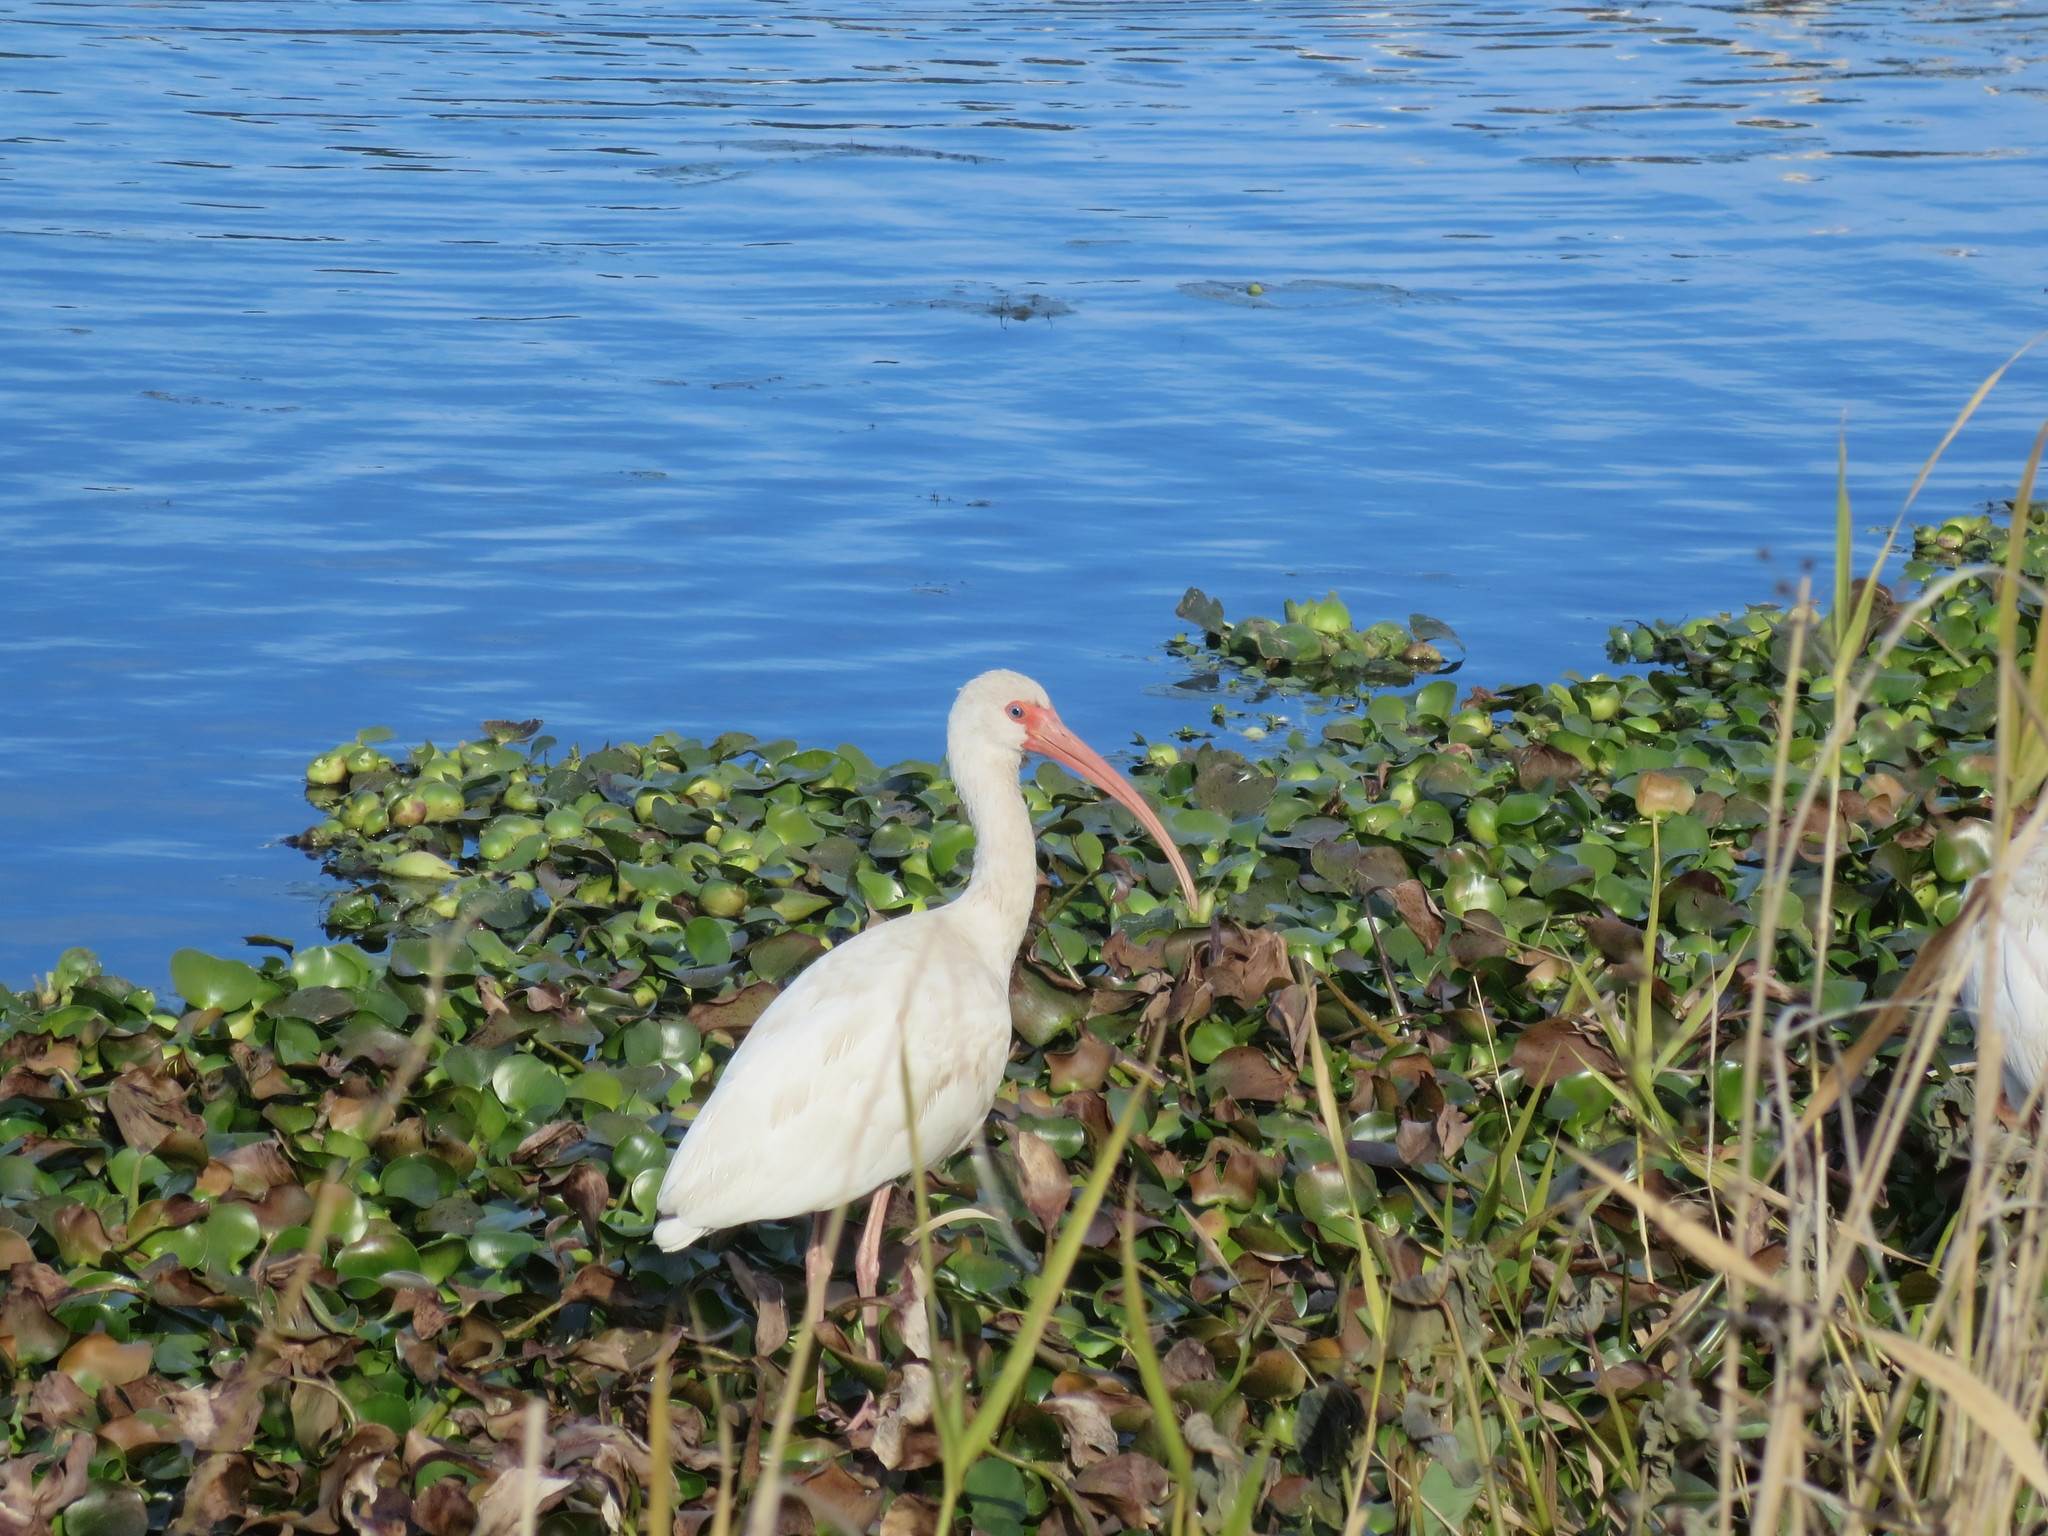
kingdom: Animalia
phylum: Chordata
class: Aves
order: Pelecaniformes
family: Threskiornithidae
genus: Eudocimus
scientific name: Eudocimus albus
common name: White ibis
